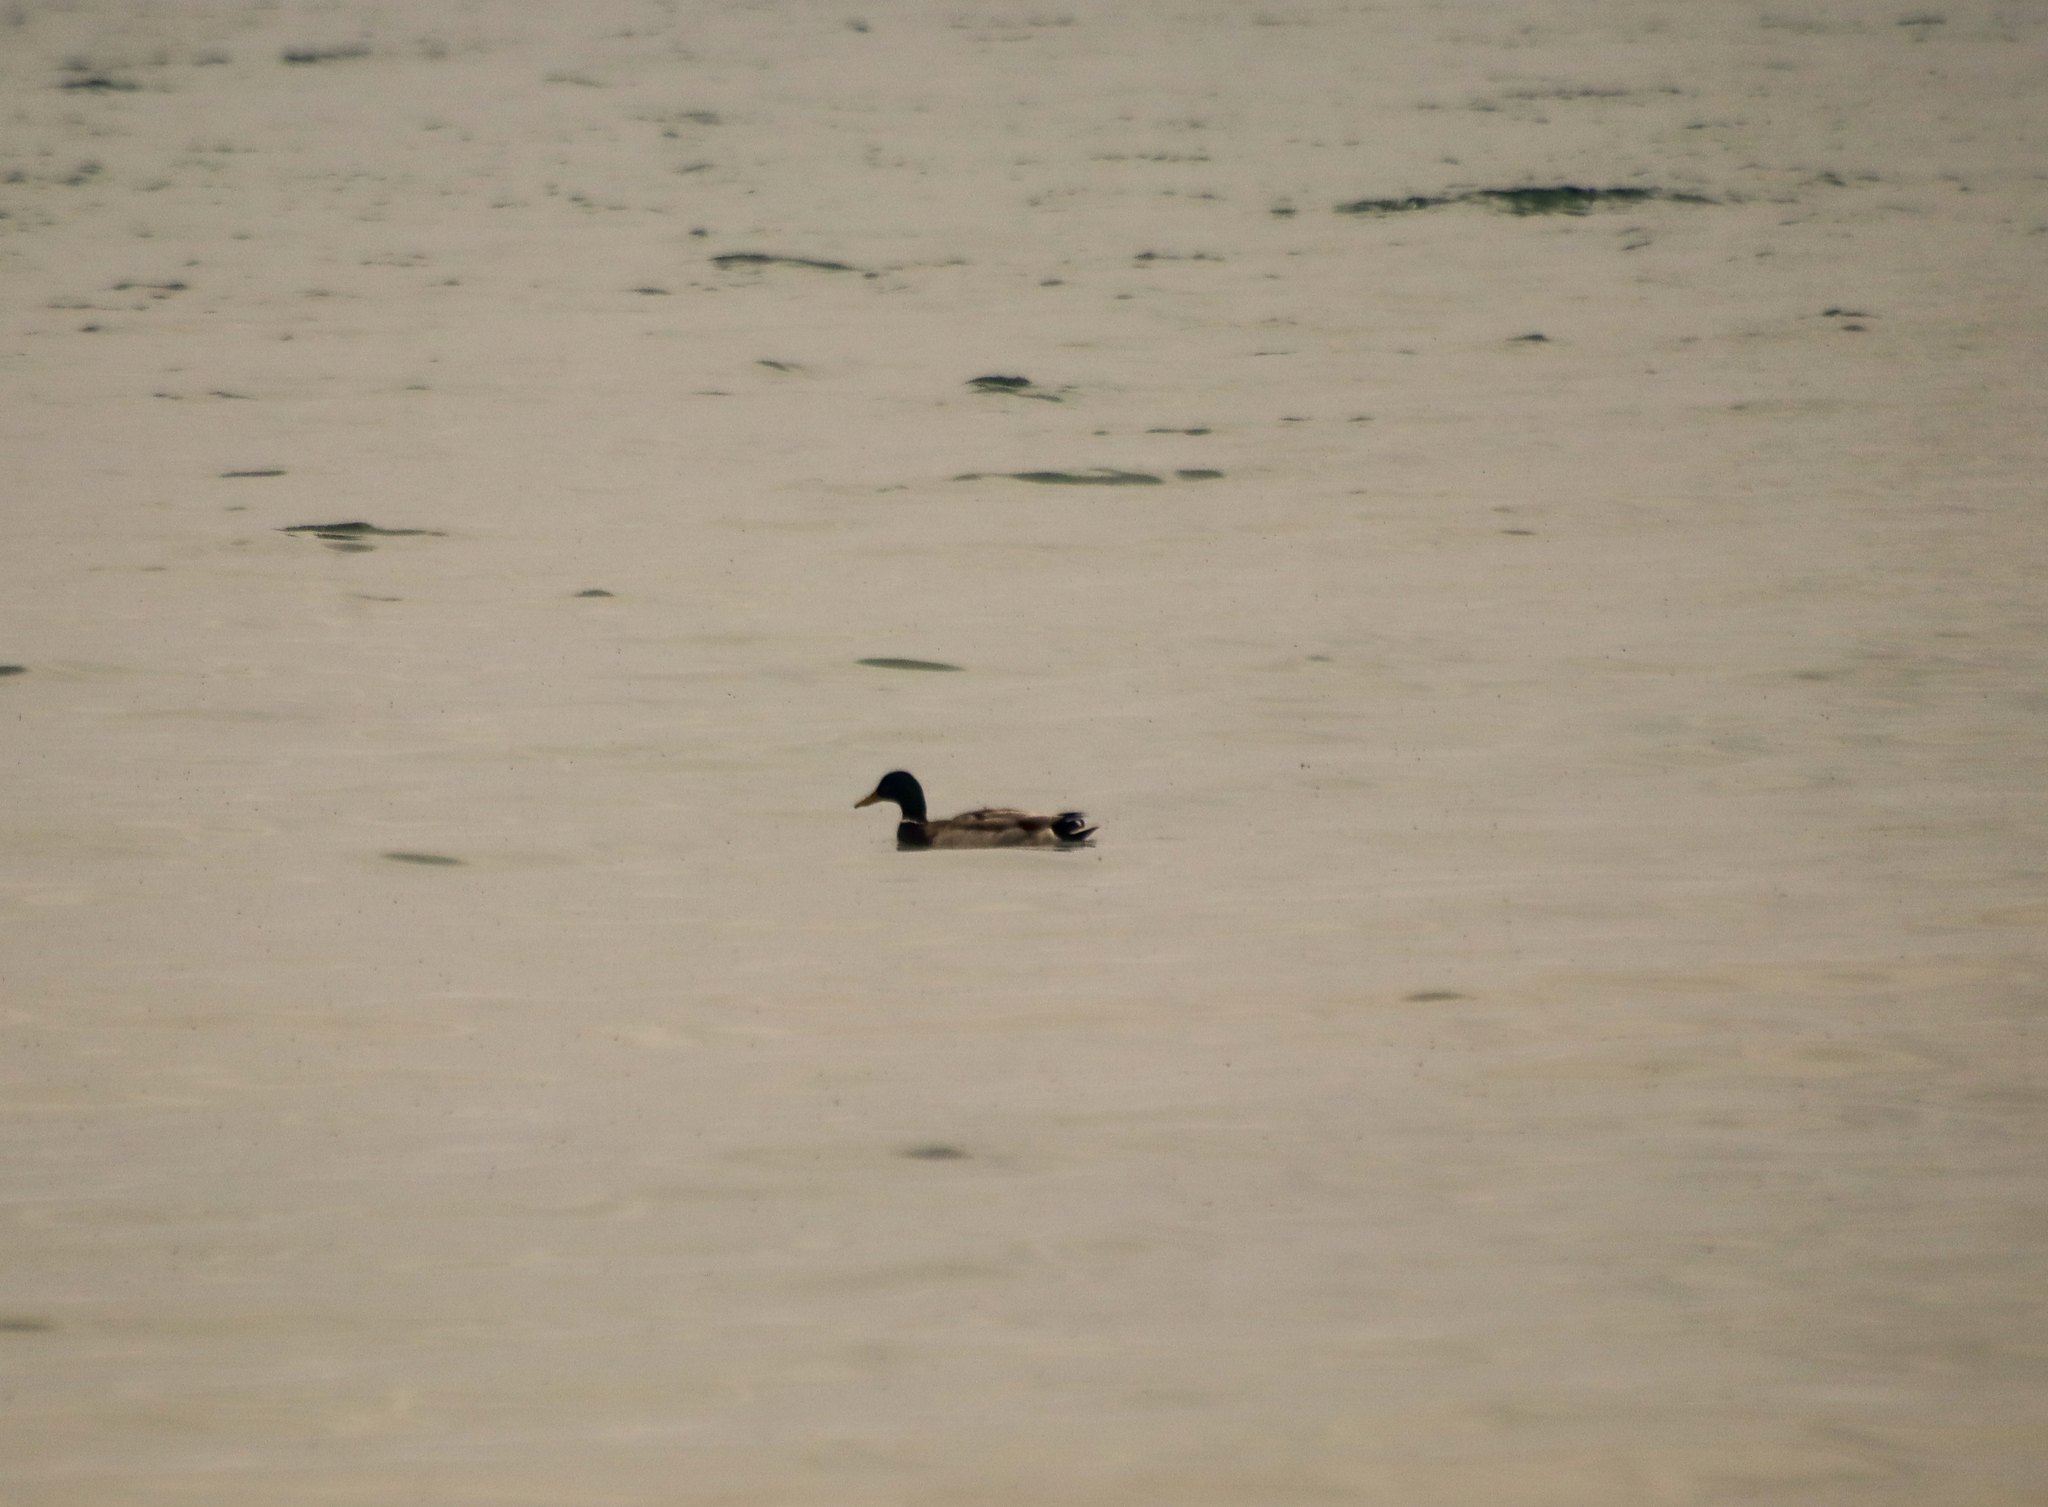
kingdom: Animalia
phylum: Chordata
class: Aves
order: Anseriformes
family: Anatidae
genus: Anas
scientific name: Anas platyrhynchos
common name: Mallard
